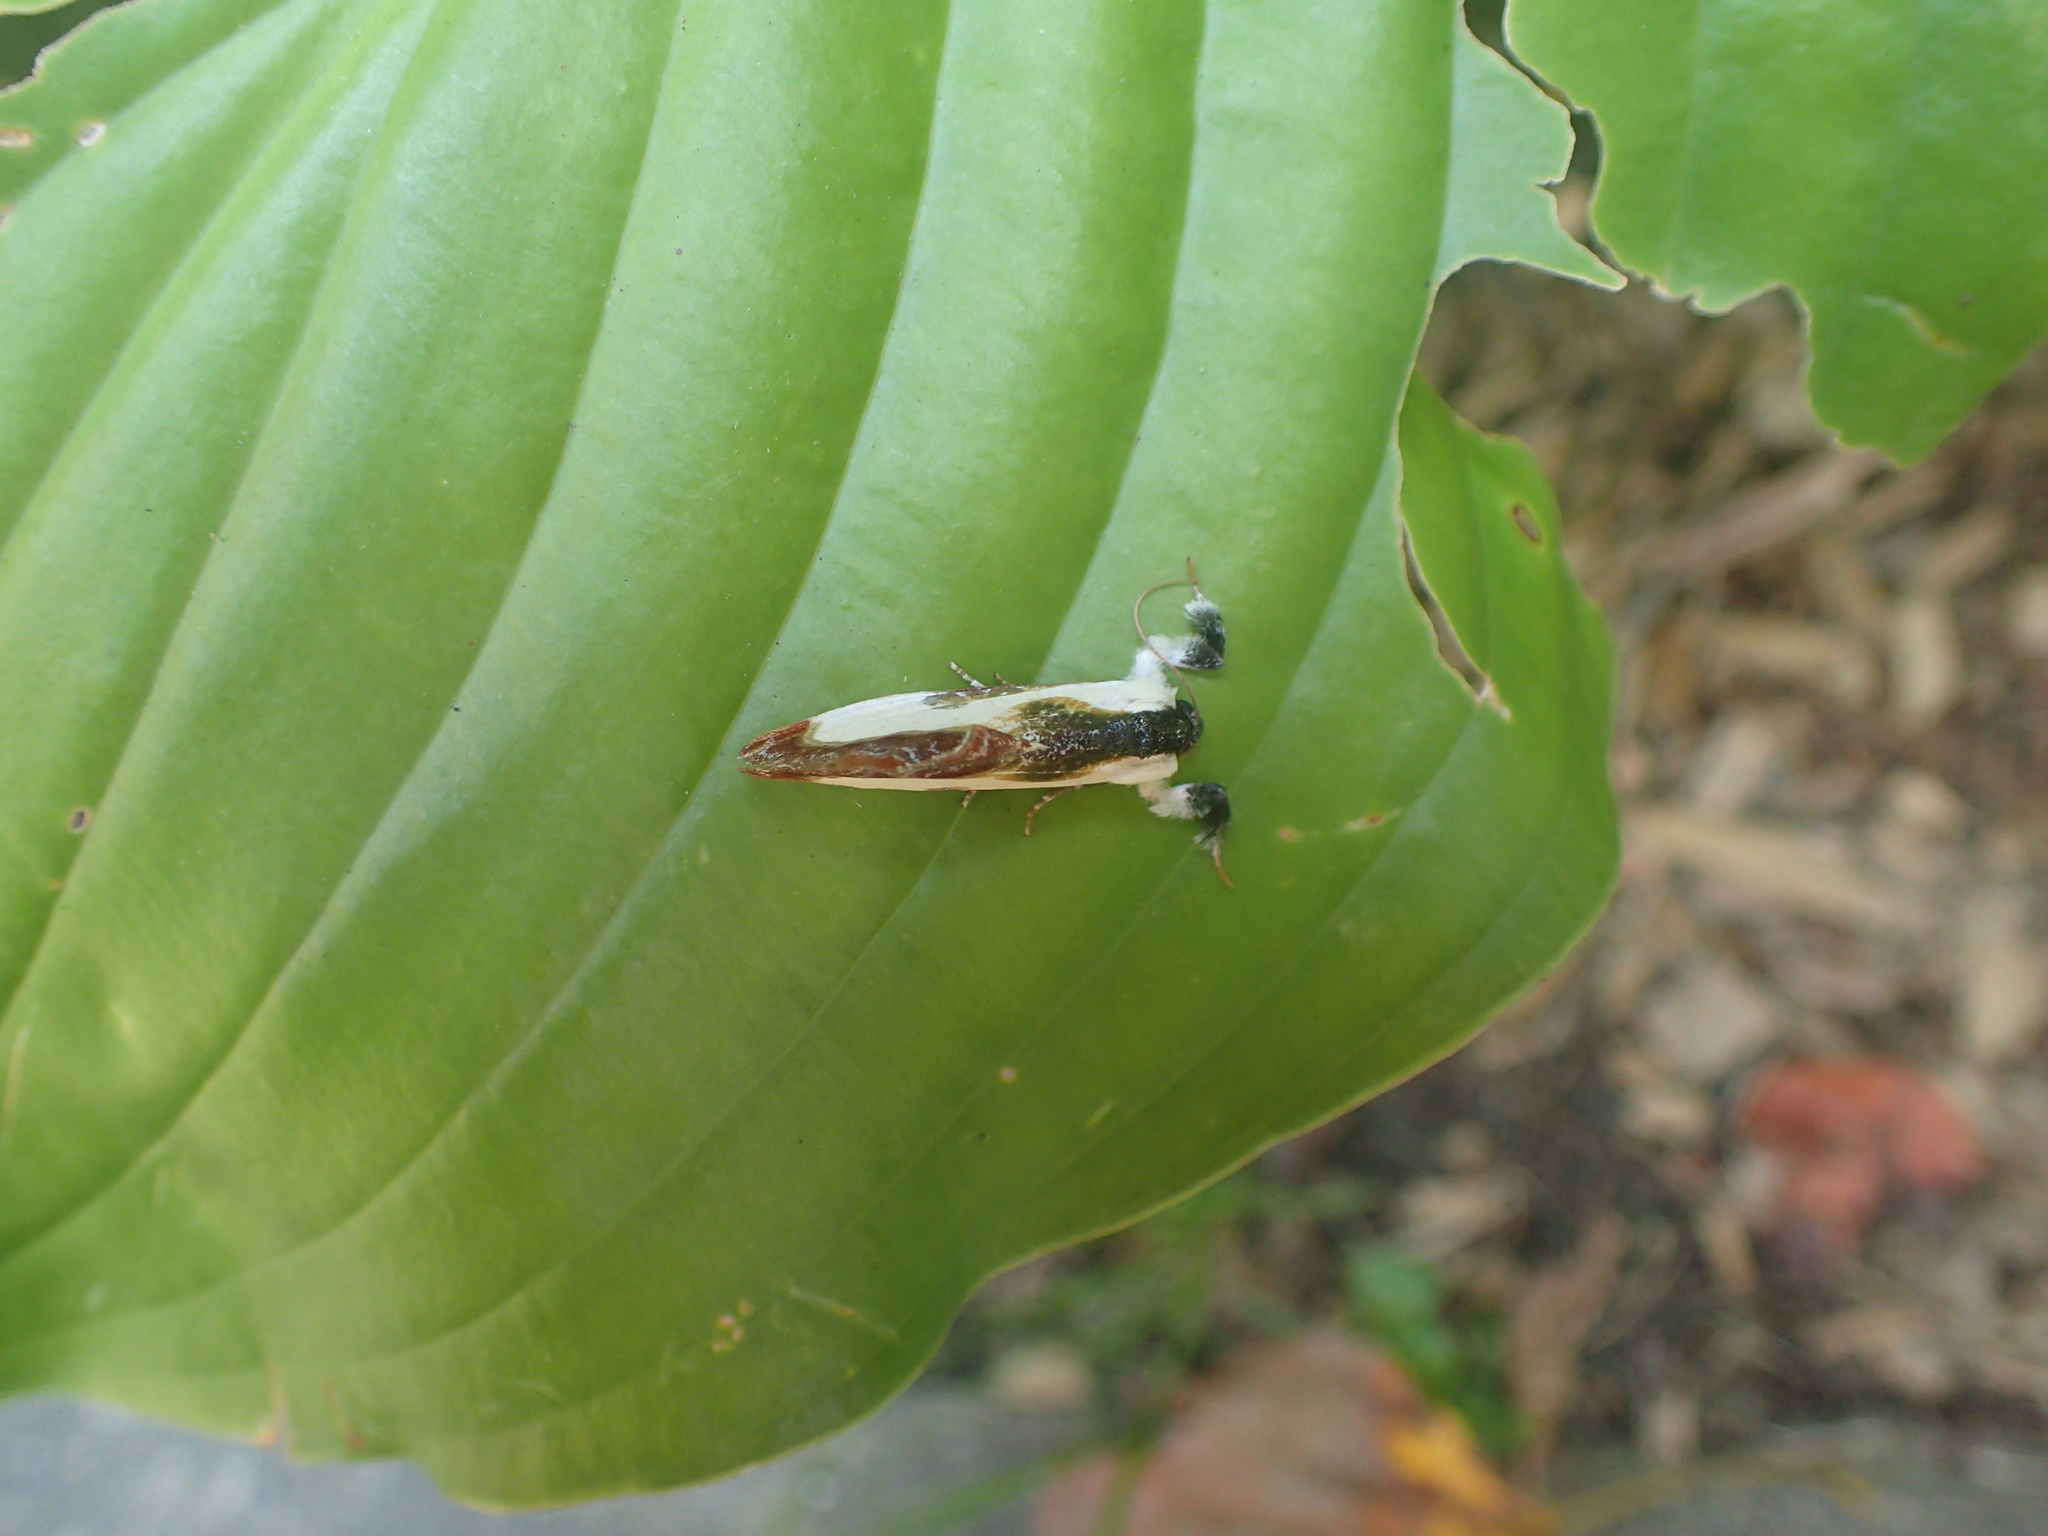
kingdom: Animalia
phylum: Arthropoda
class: Insecta
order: Lepidoptera
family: Noctuidae
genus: Eudryas
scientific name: Eudryas grata
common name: Beautiful wood-nymph
